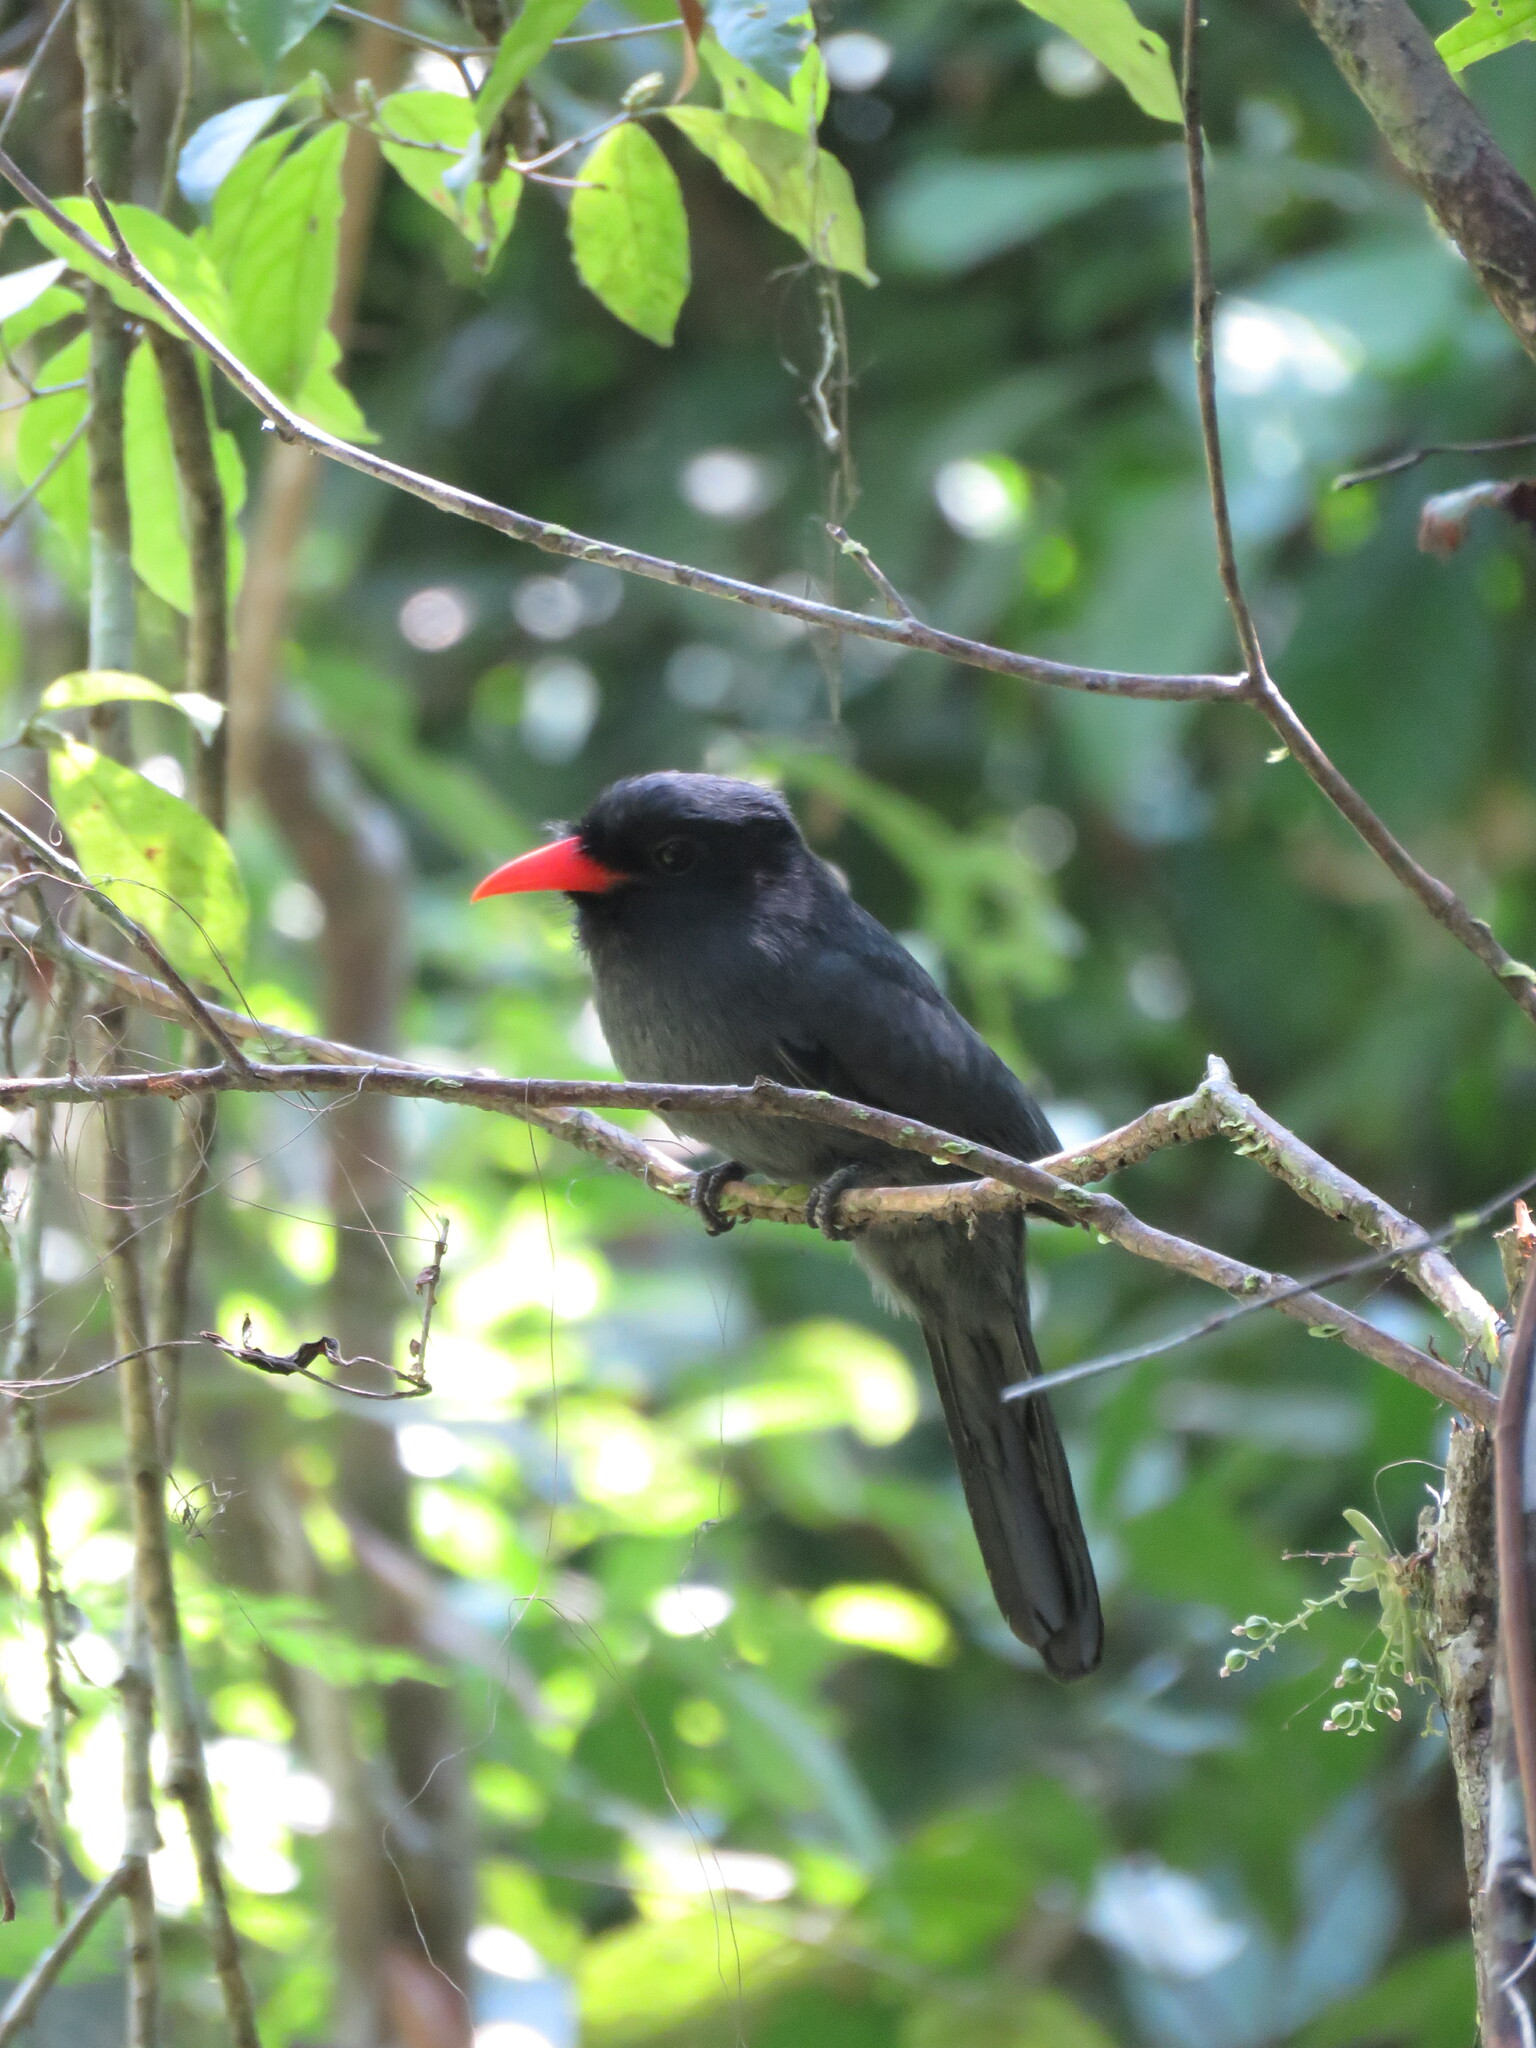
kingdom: Animalia
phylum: Chordata
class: Aves
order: Piciformes
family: Bucconidae
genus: Monasa
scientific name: Monasa nigrifrons
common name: Black-fronted nunbird
